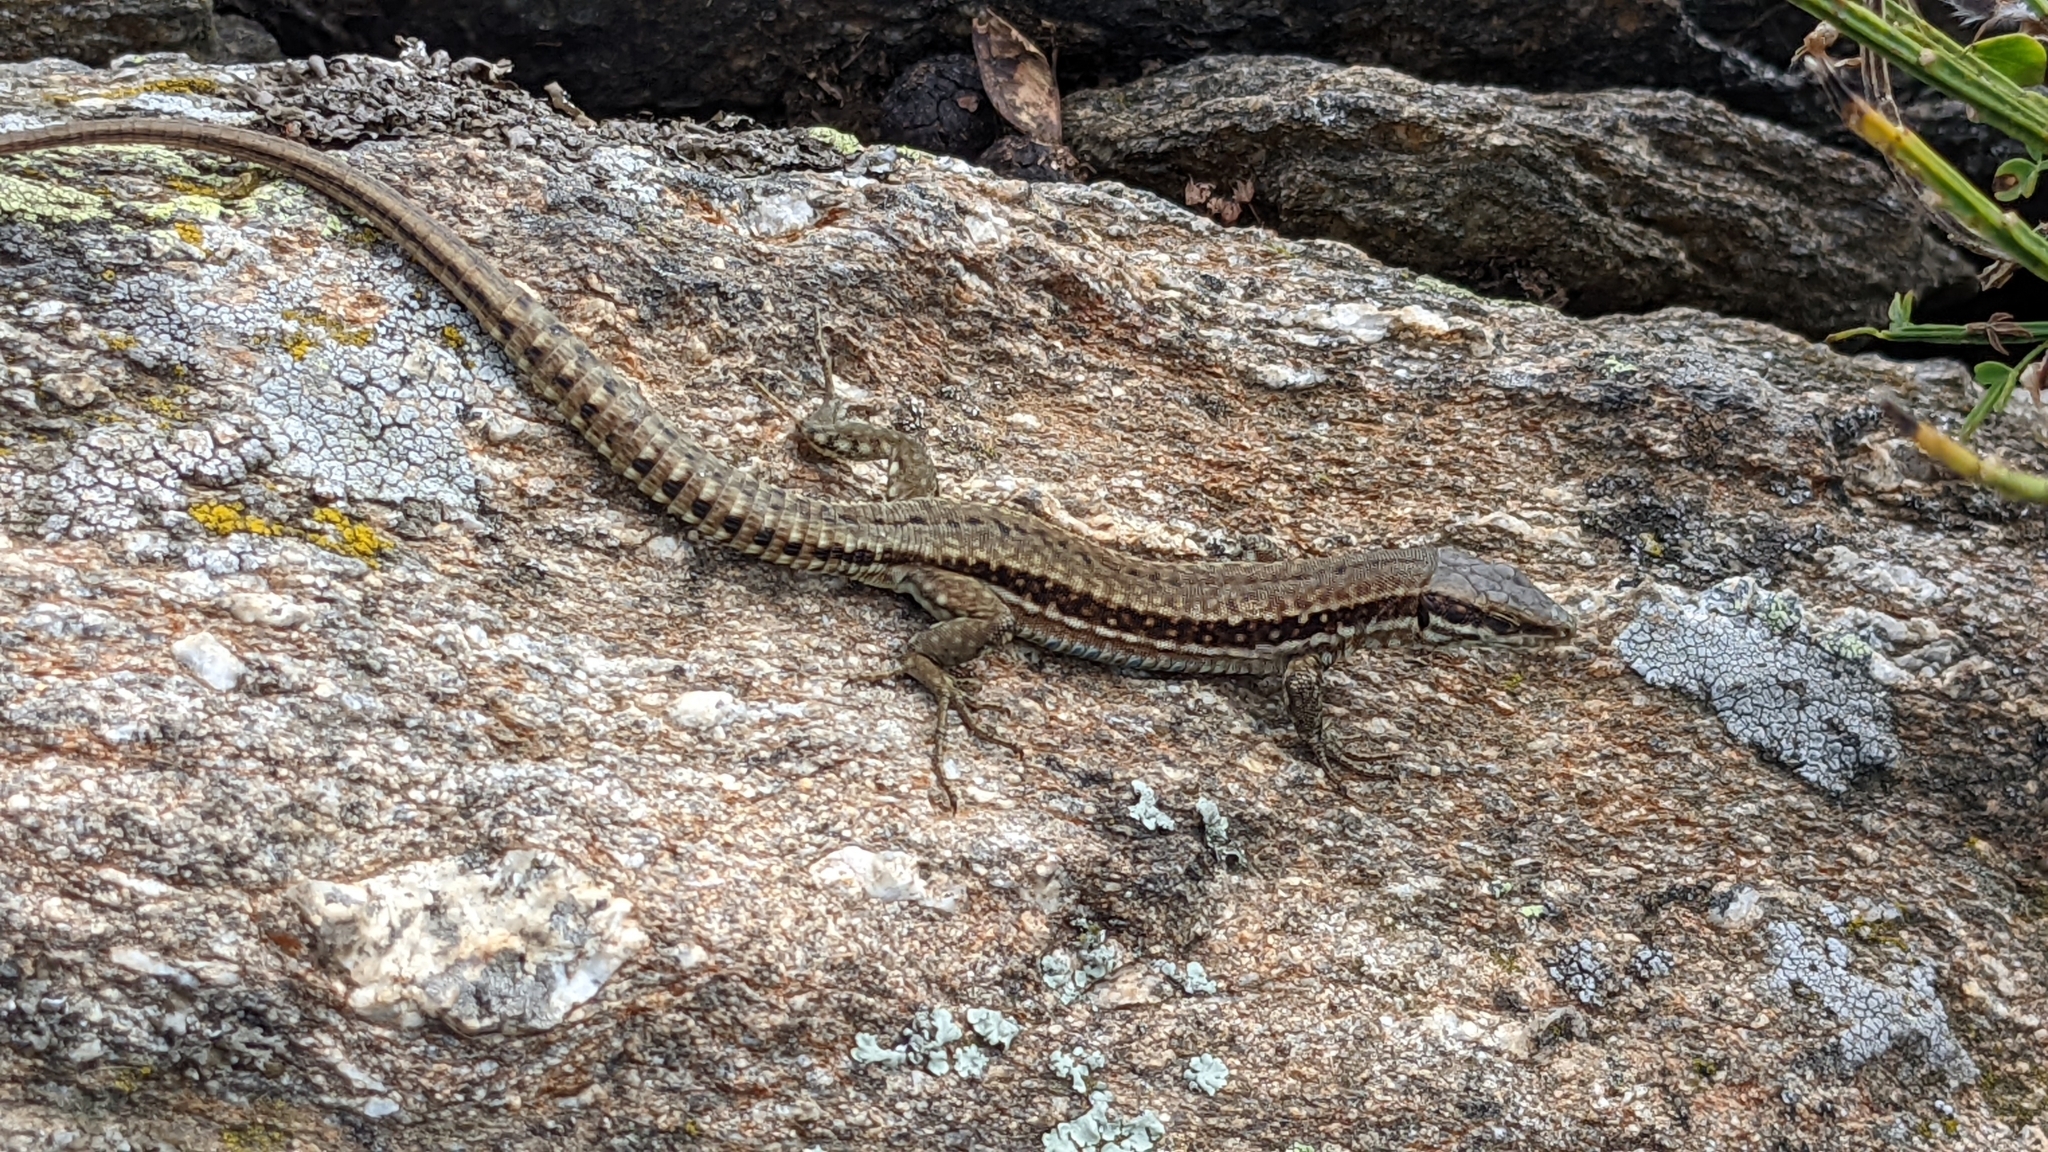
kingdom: Animalia
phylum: Chordata
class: Squamata
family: Lacertidae
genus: Podarcis
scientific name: Podarcis muralis
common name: Common wall lizard
